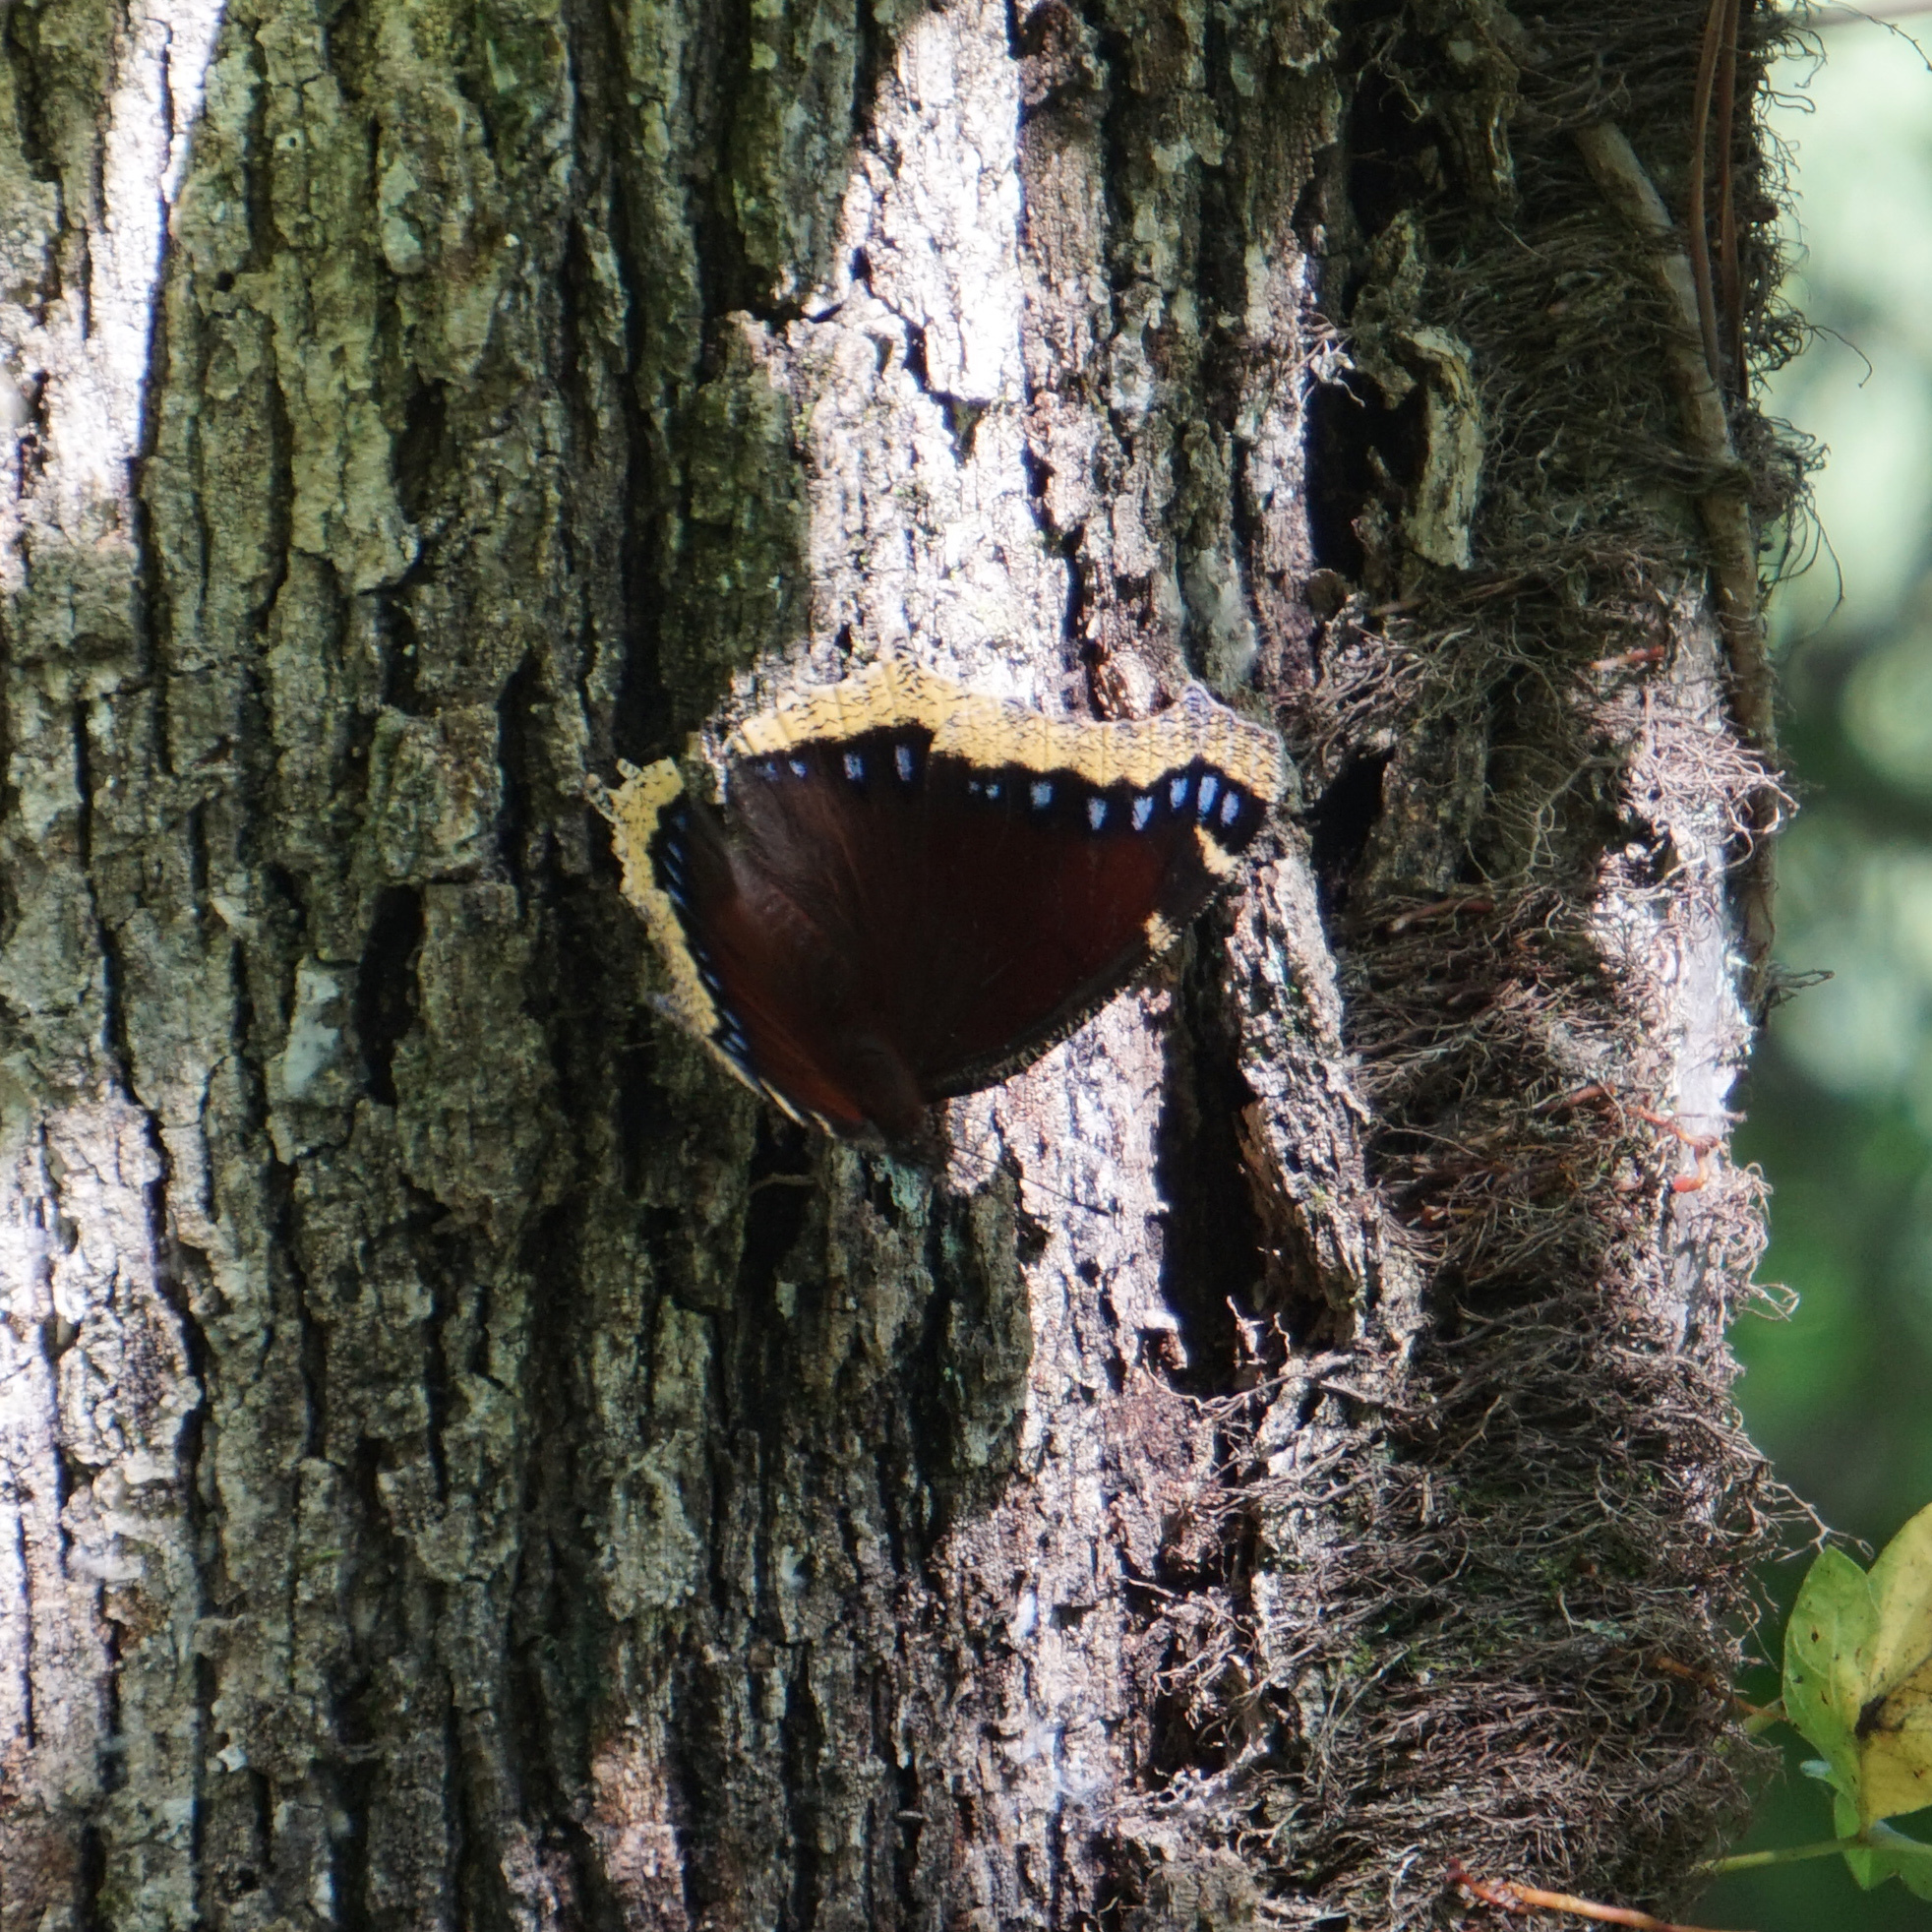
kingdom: Animalia
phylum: Arthropoda
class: Insecta
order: Lepidoptera
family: Nymphalidae
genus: Nymphalis
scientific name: Nymphalis antiopa
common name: Camberwell beauty
